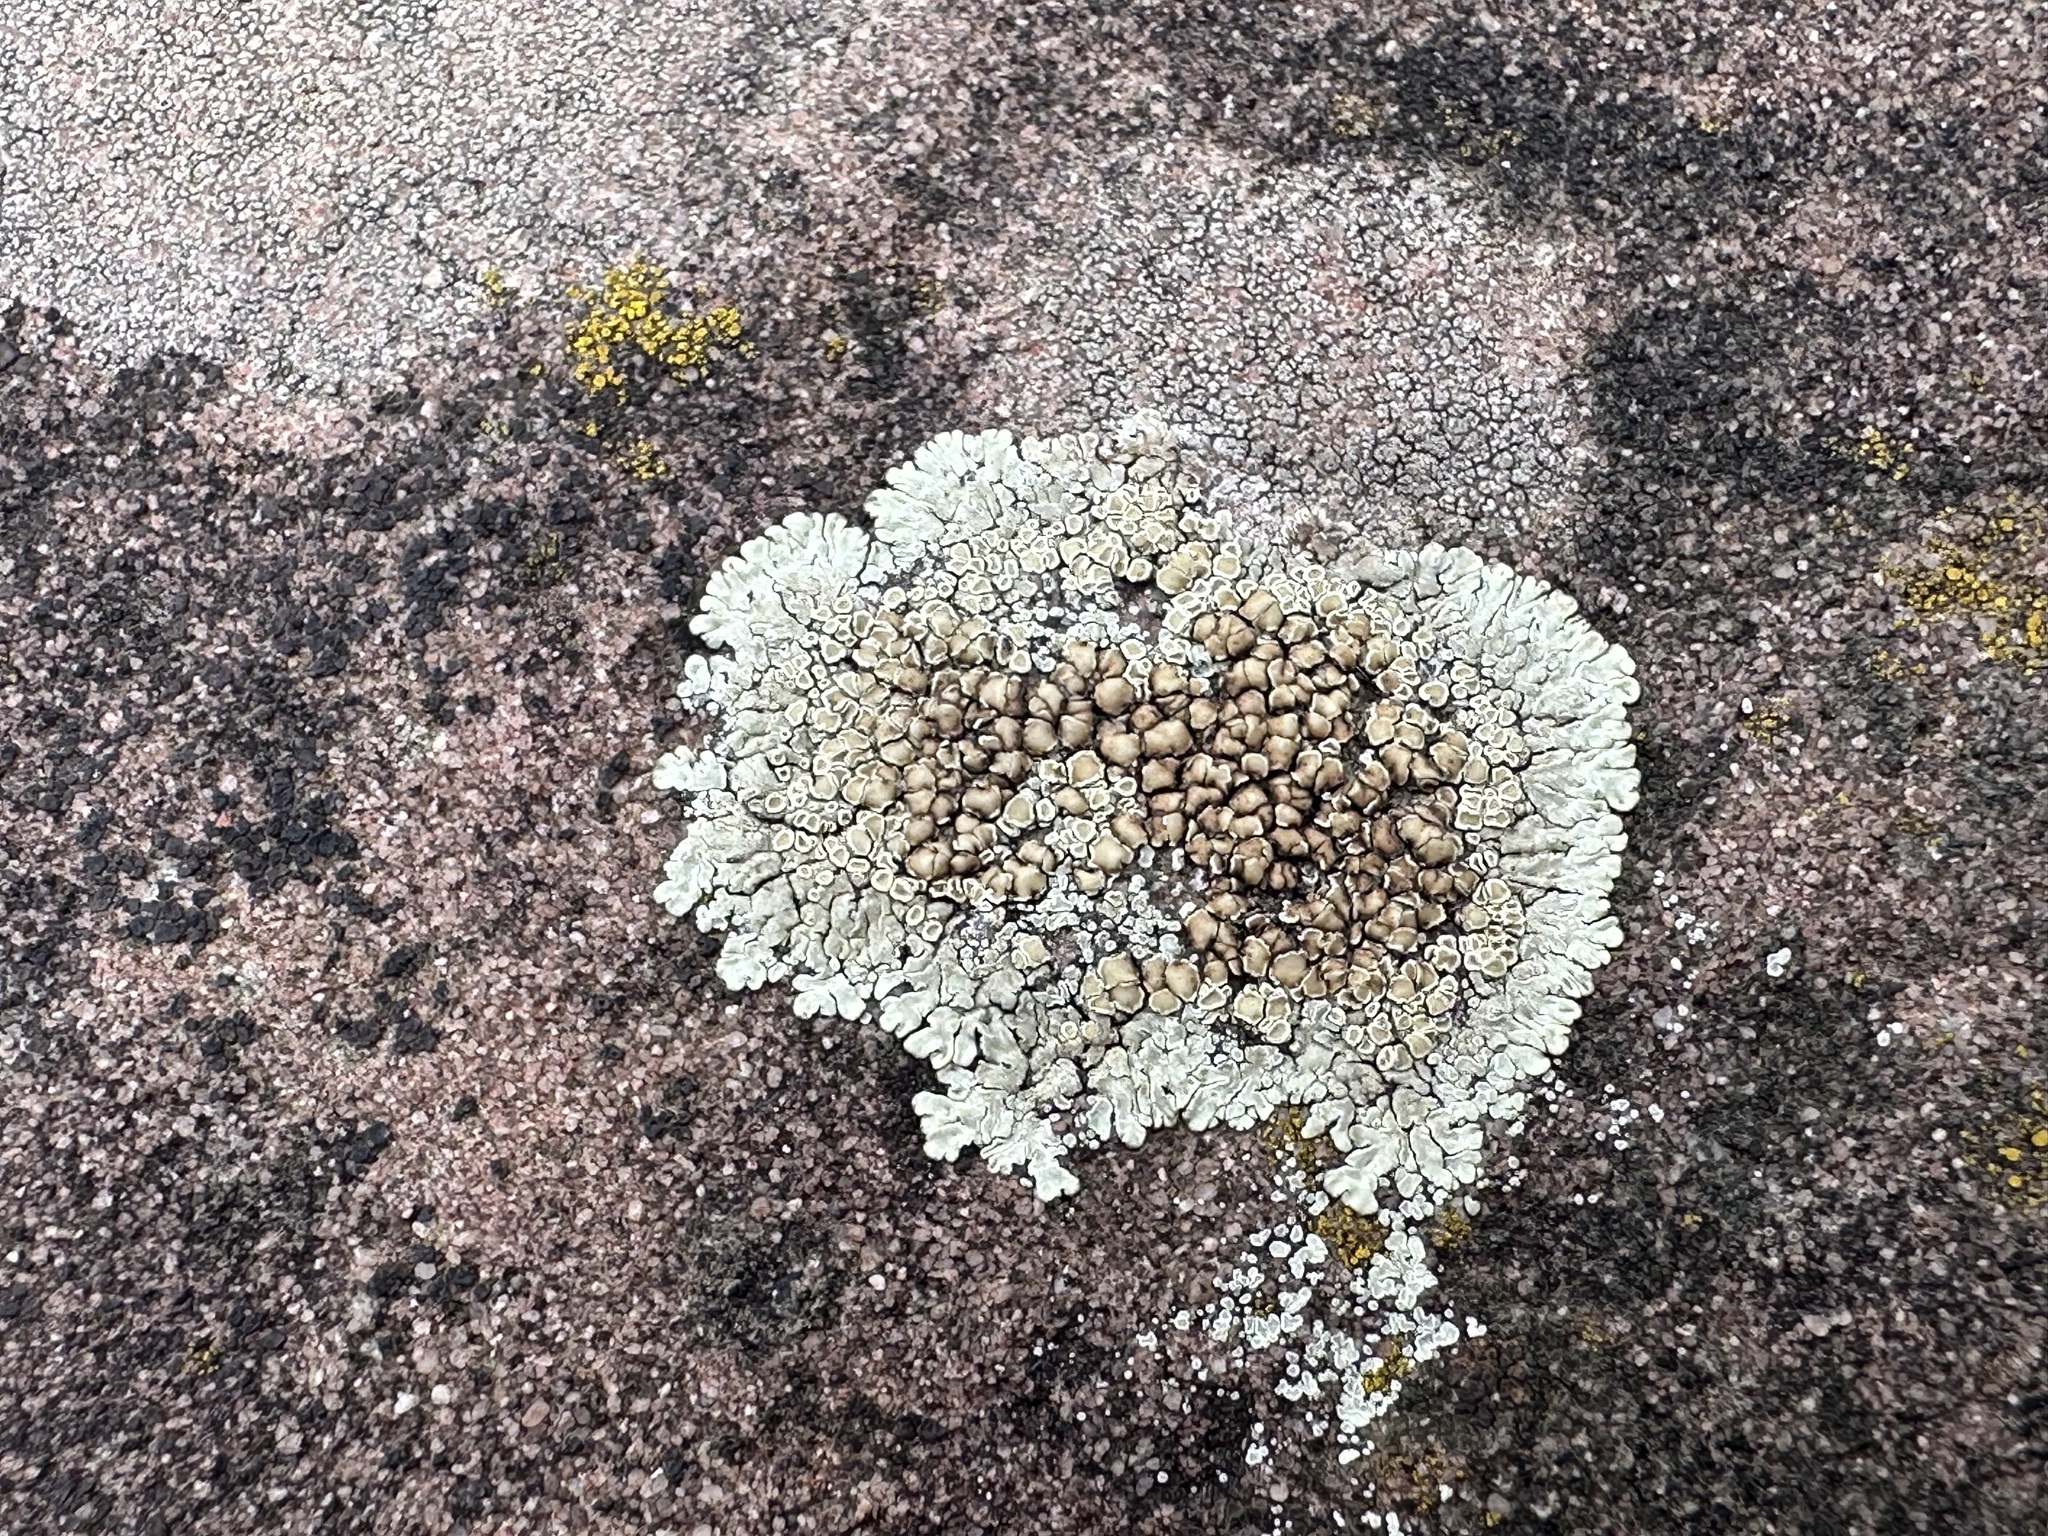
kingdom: Fungi
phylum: Ascomycota
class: Lecanoromycetes
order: Lecanorales
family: Lecanoraceae
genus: Protoparmeliopsis
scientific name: Protoparmeliopsis muralis
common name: Stonewall rim lichen
